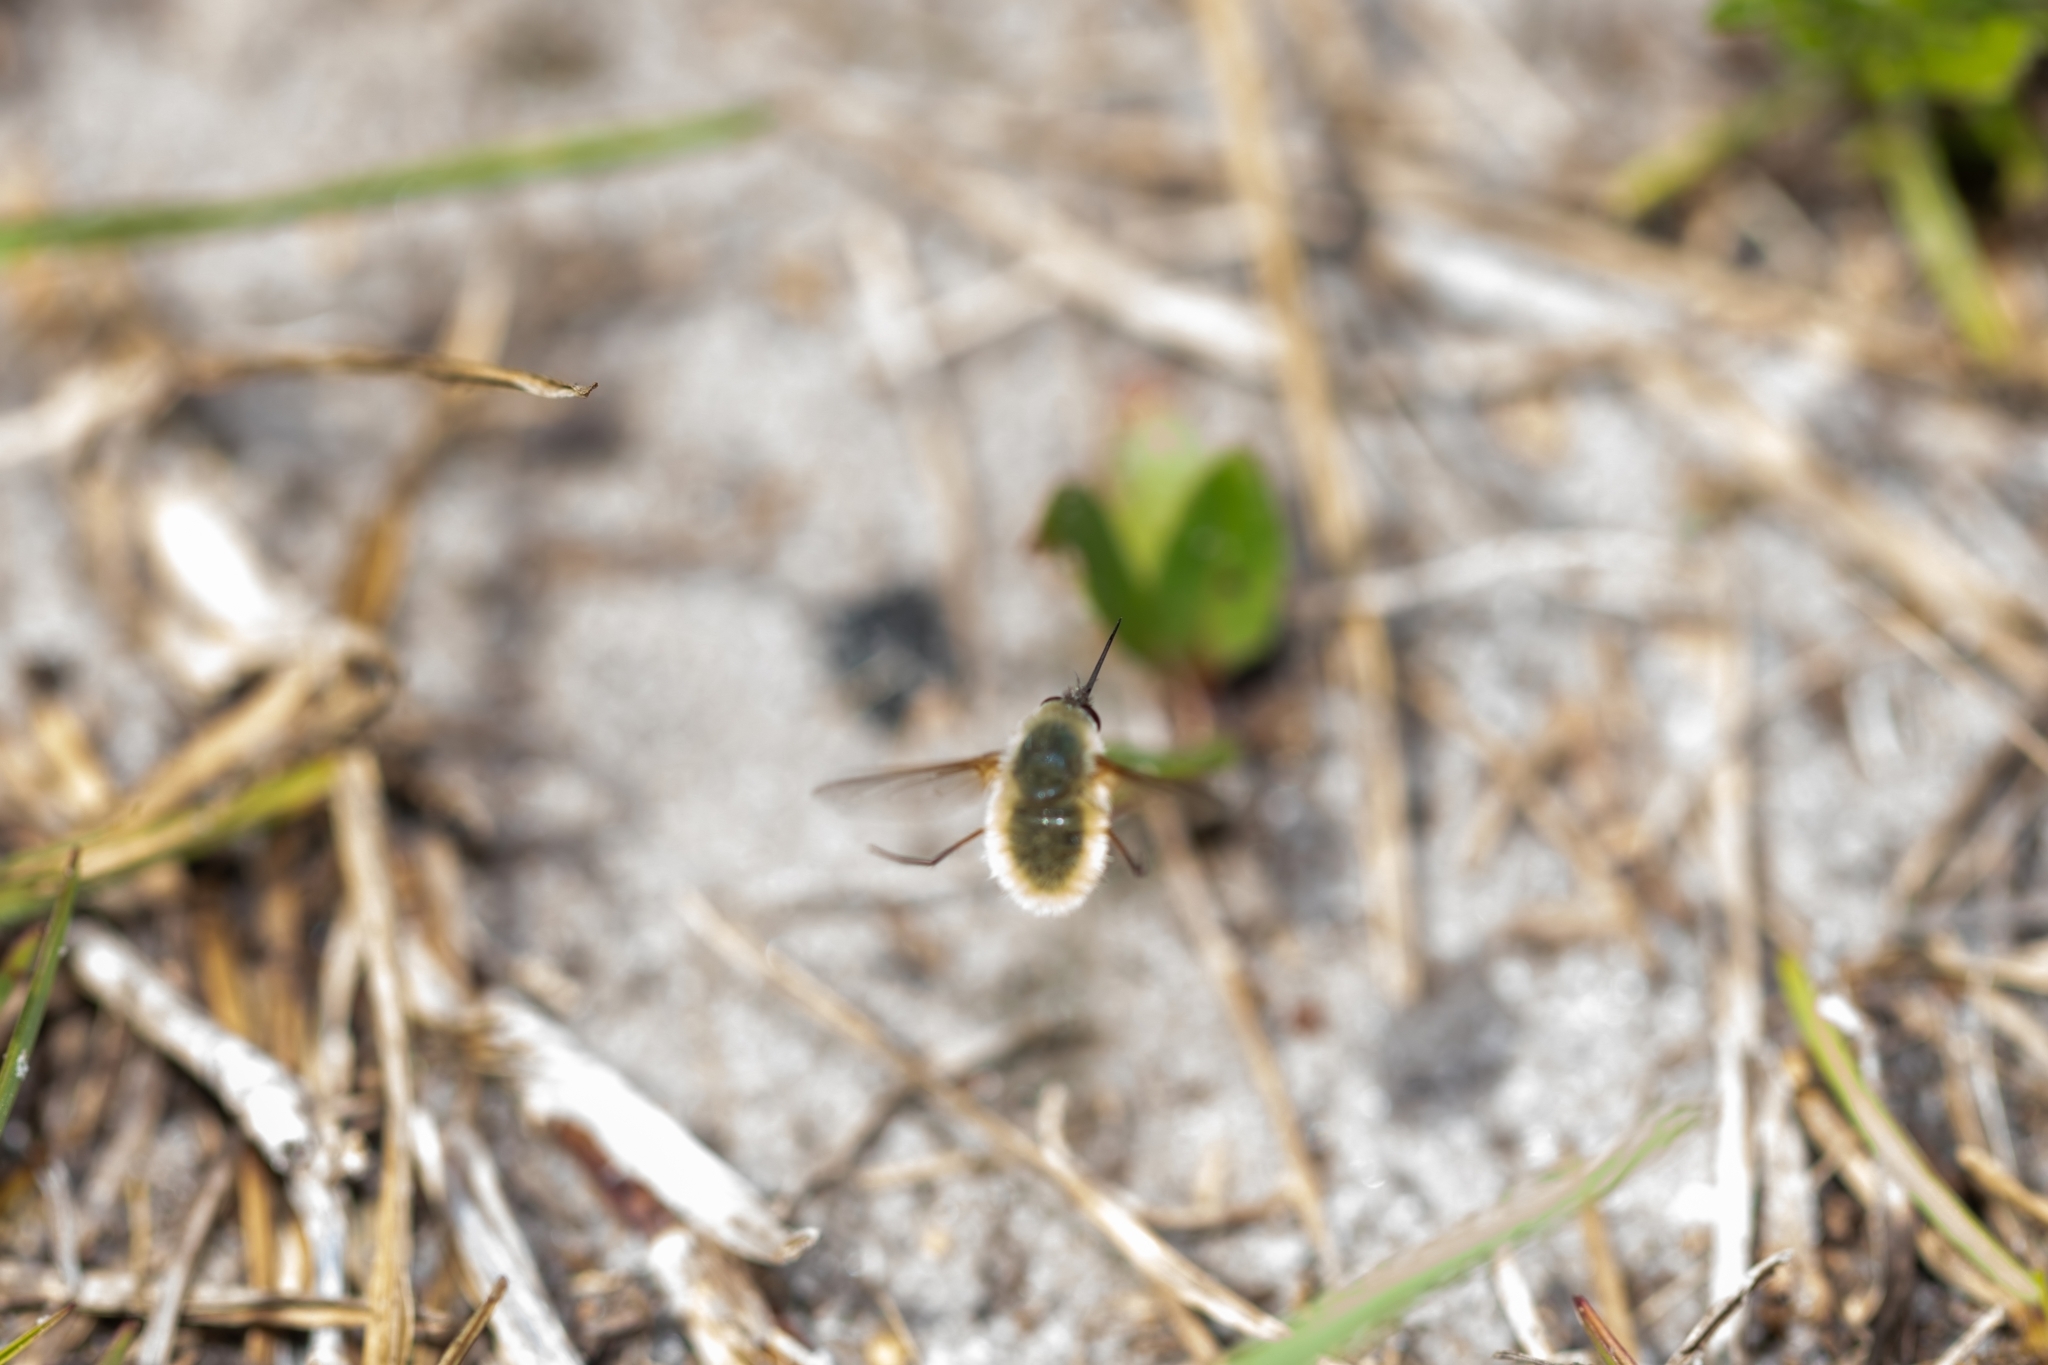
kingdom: Animalia
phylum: Arthropoda
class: Insecta
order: Diptera
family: Bombyliidae
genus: Systoechus
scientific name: Systoechus candidulus
